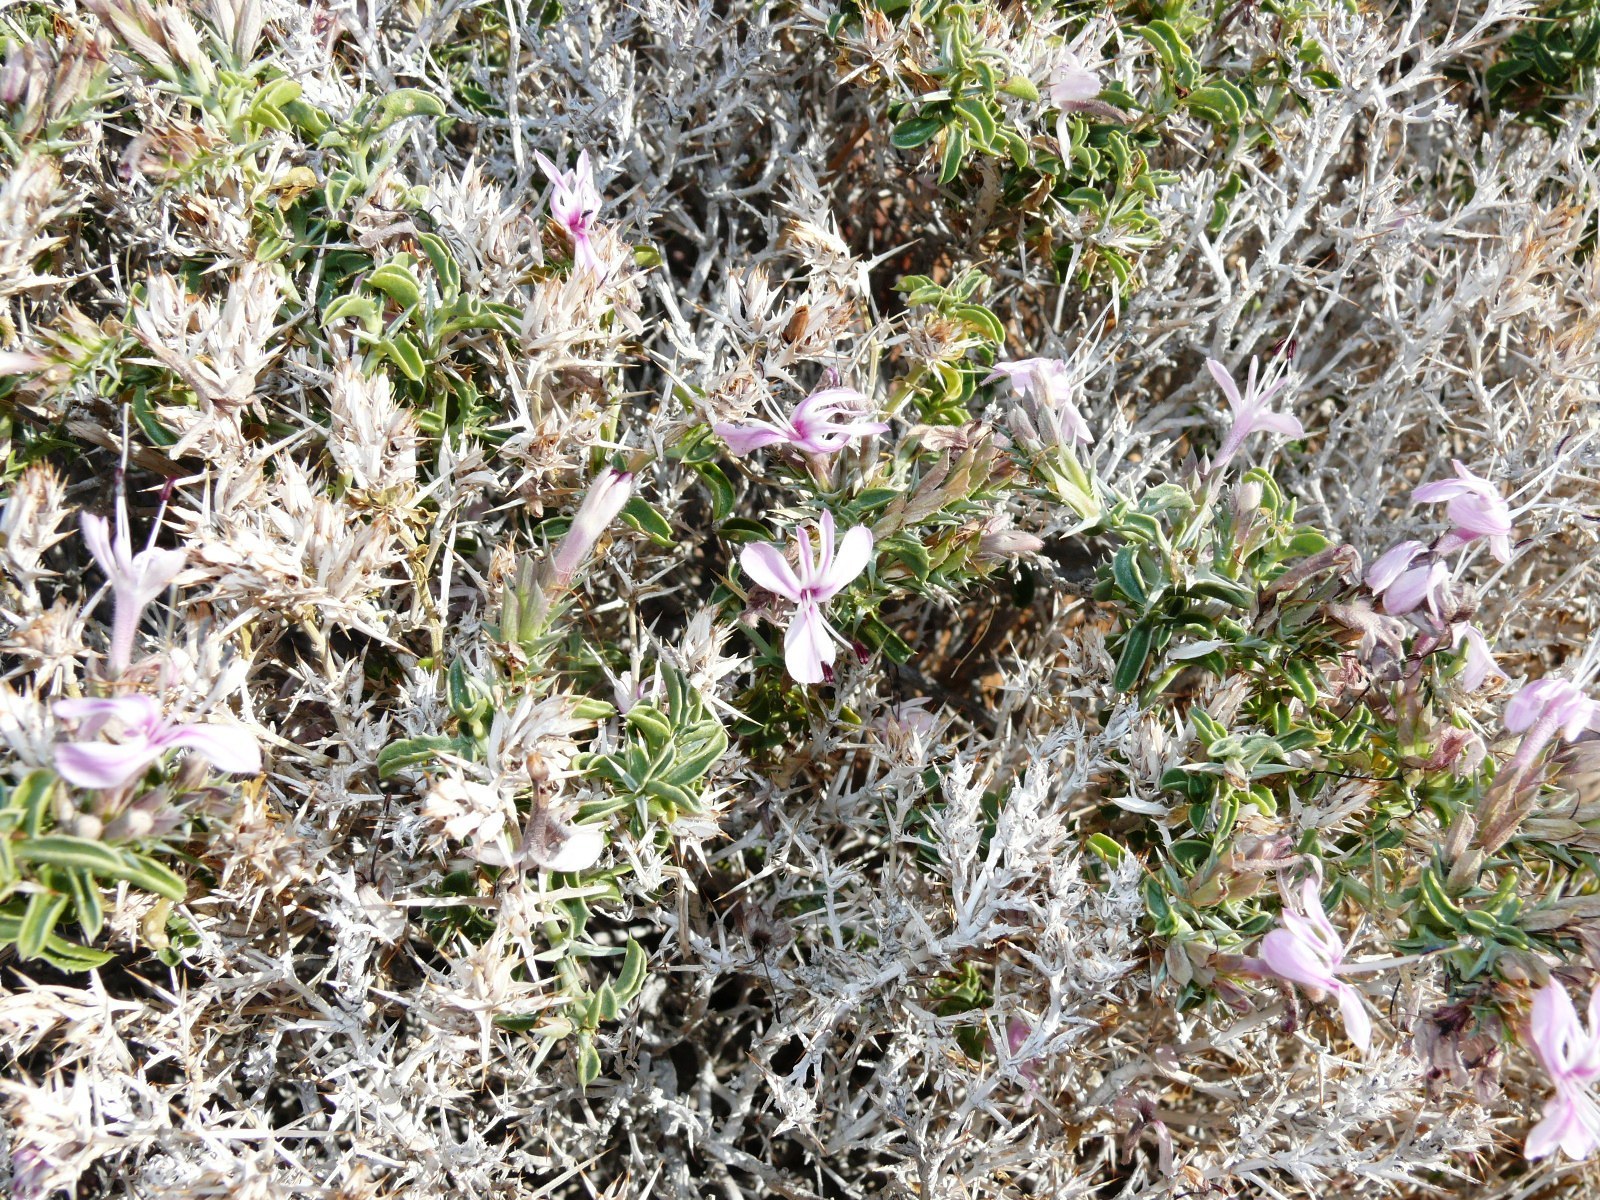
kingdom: Plantae
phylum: Tracheophyta
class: Magnoliopsida
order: Lamiales
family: Acanthaceae
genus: Barleria
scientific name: Barleria papillosa
